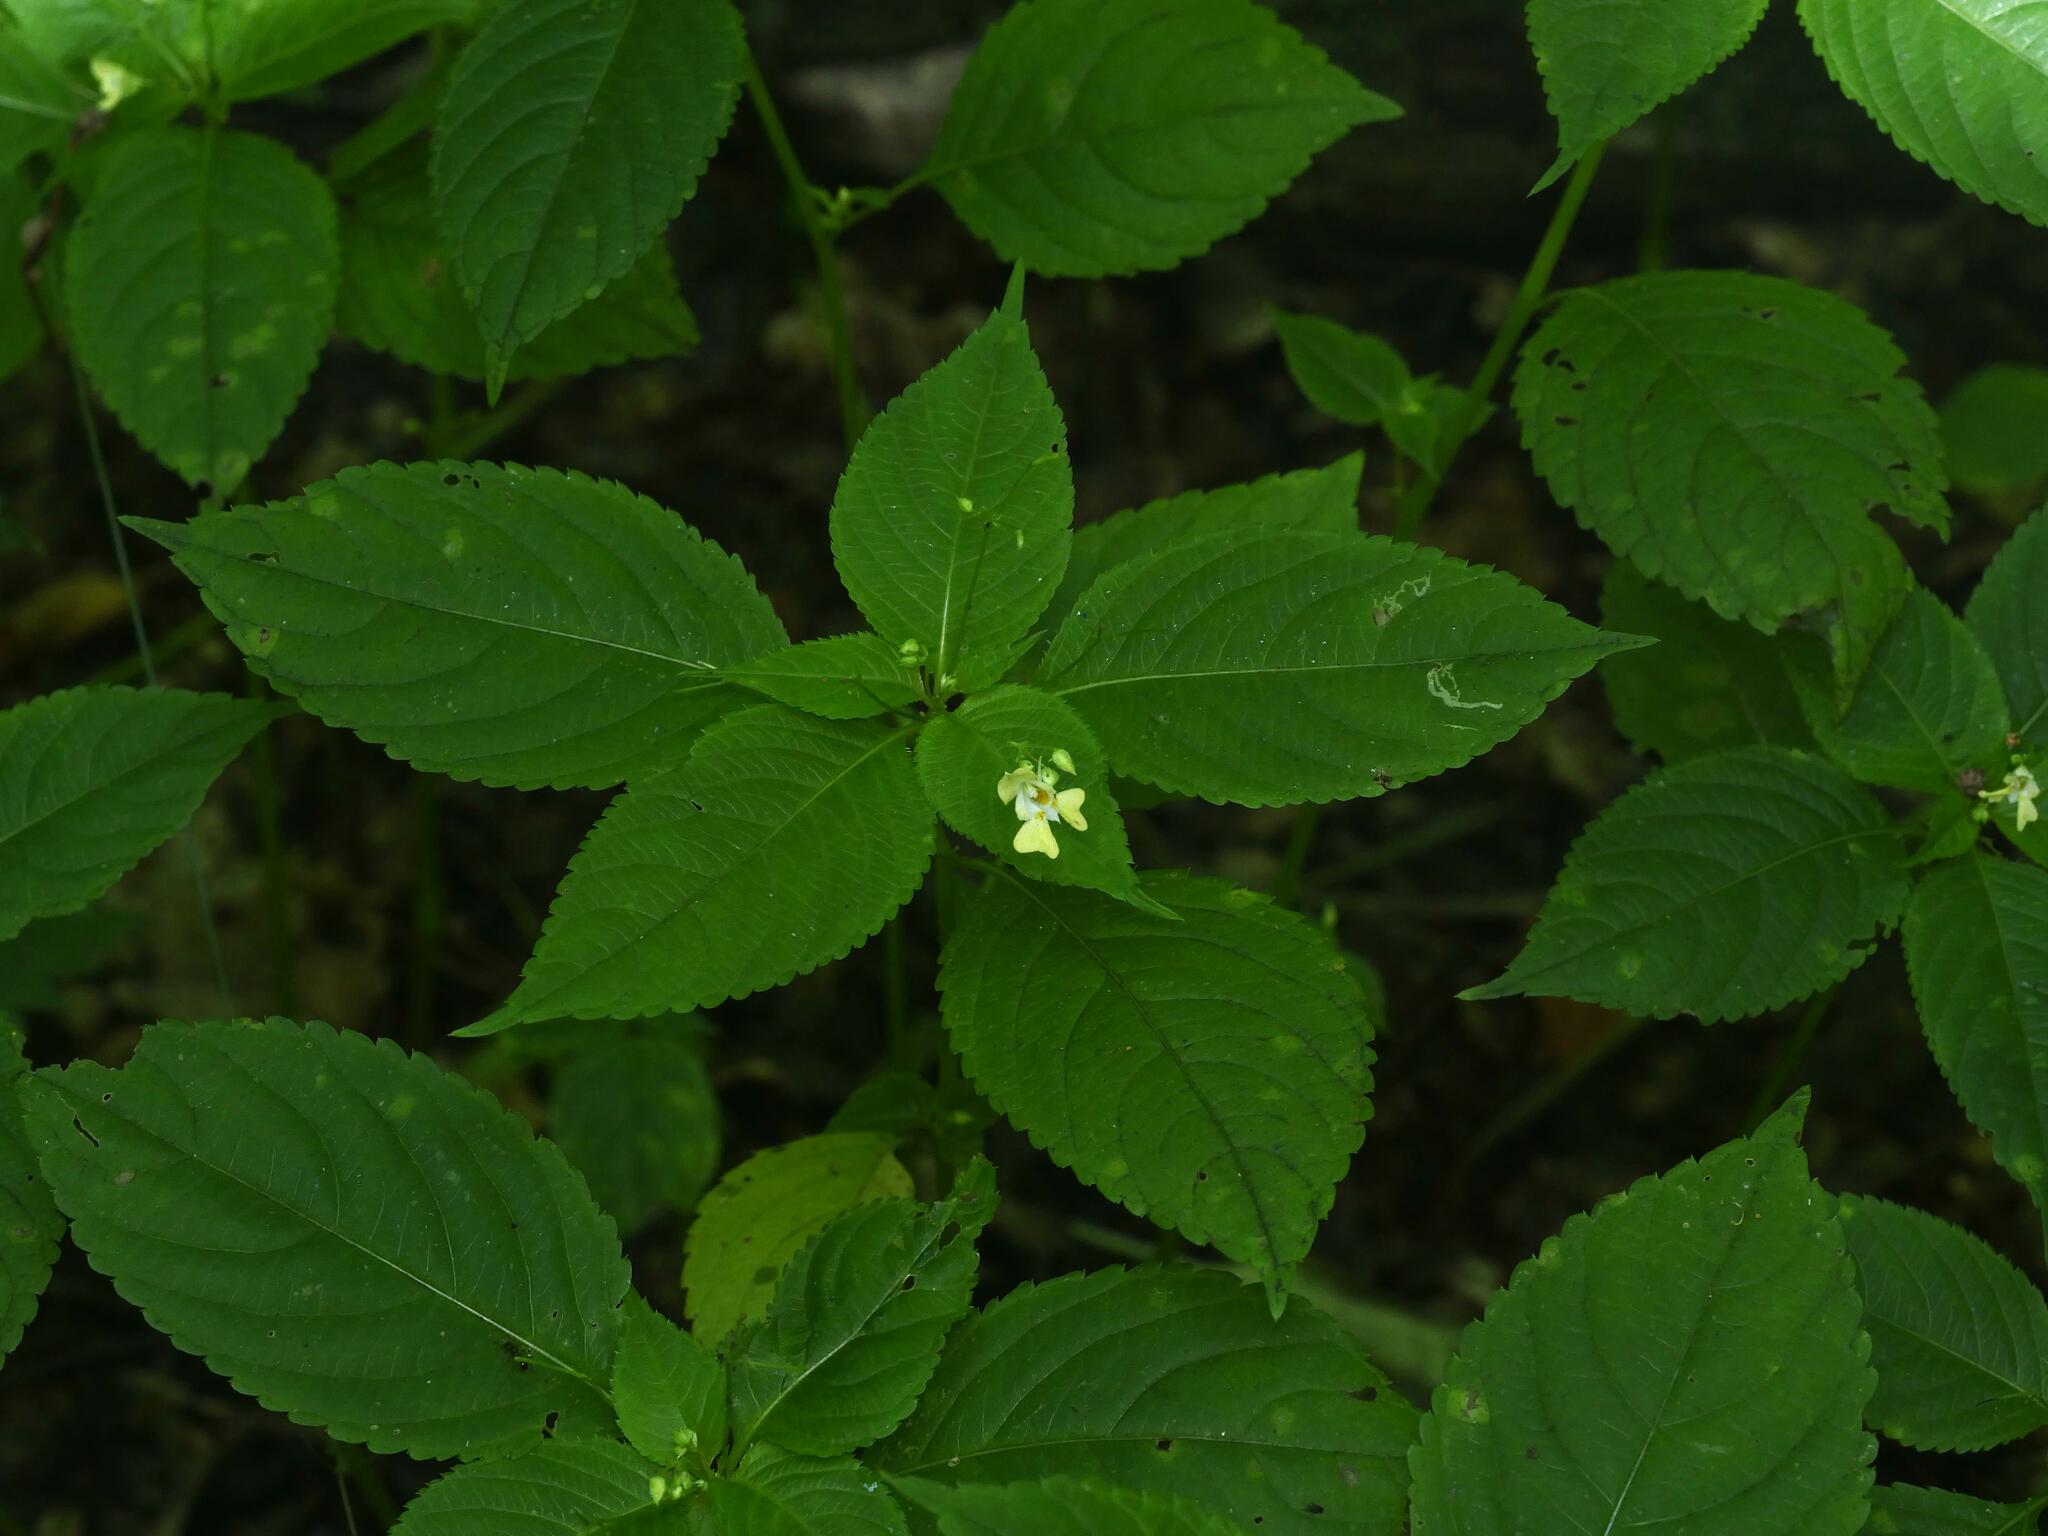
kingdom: Plantae
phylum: Tracheophyta
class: Magnoliopsida
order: Ericales
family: Balsaminaceae
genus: Impatiens
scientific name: Impatiens parviflora
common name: Small balsam
